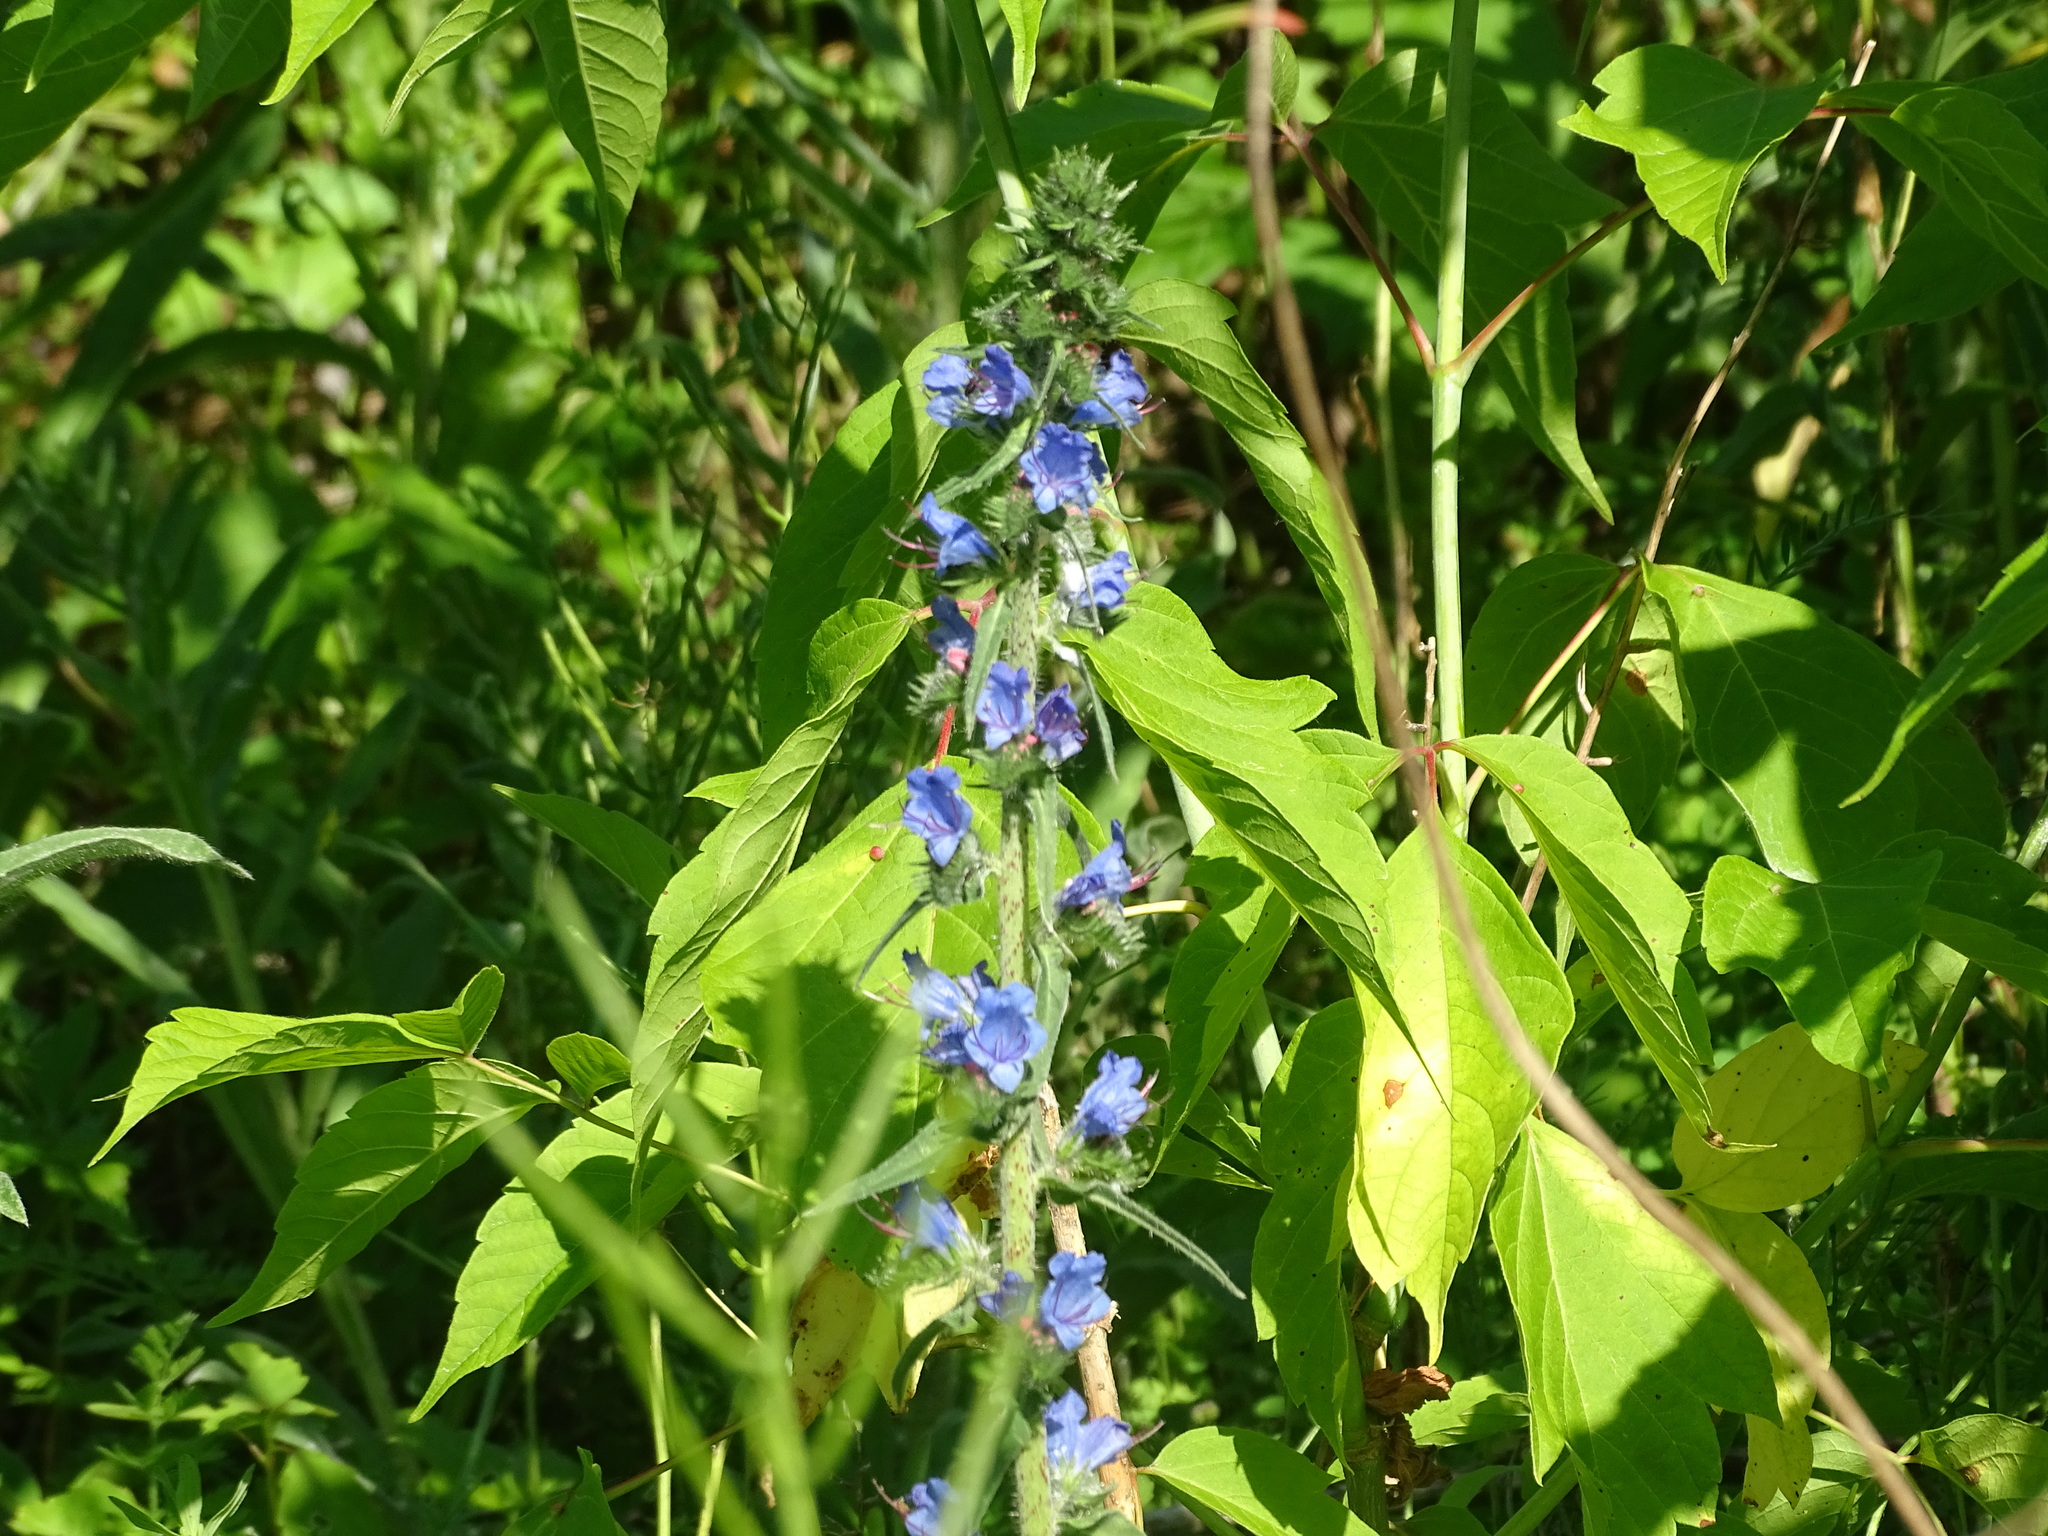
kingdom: Plantae
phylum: Tracheophyta
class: Magnoliopsida
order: Boraginales
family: Boraginaceae
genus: Echium
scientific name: Echium vulgare
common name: Common viper's bugloss
